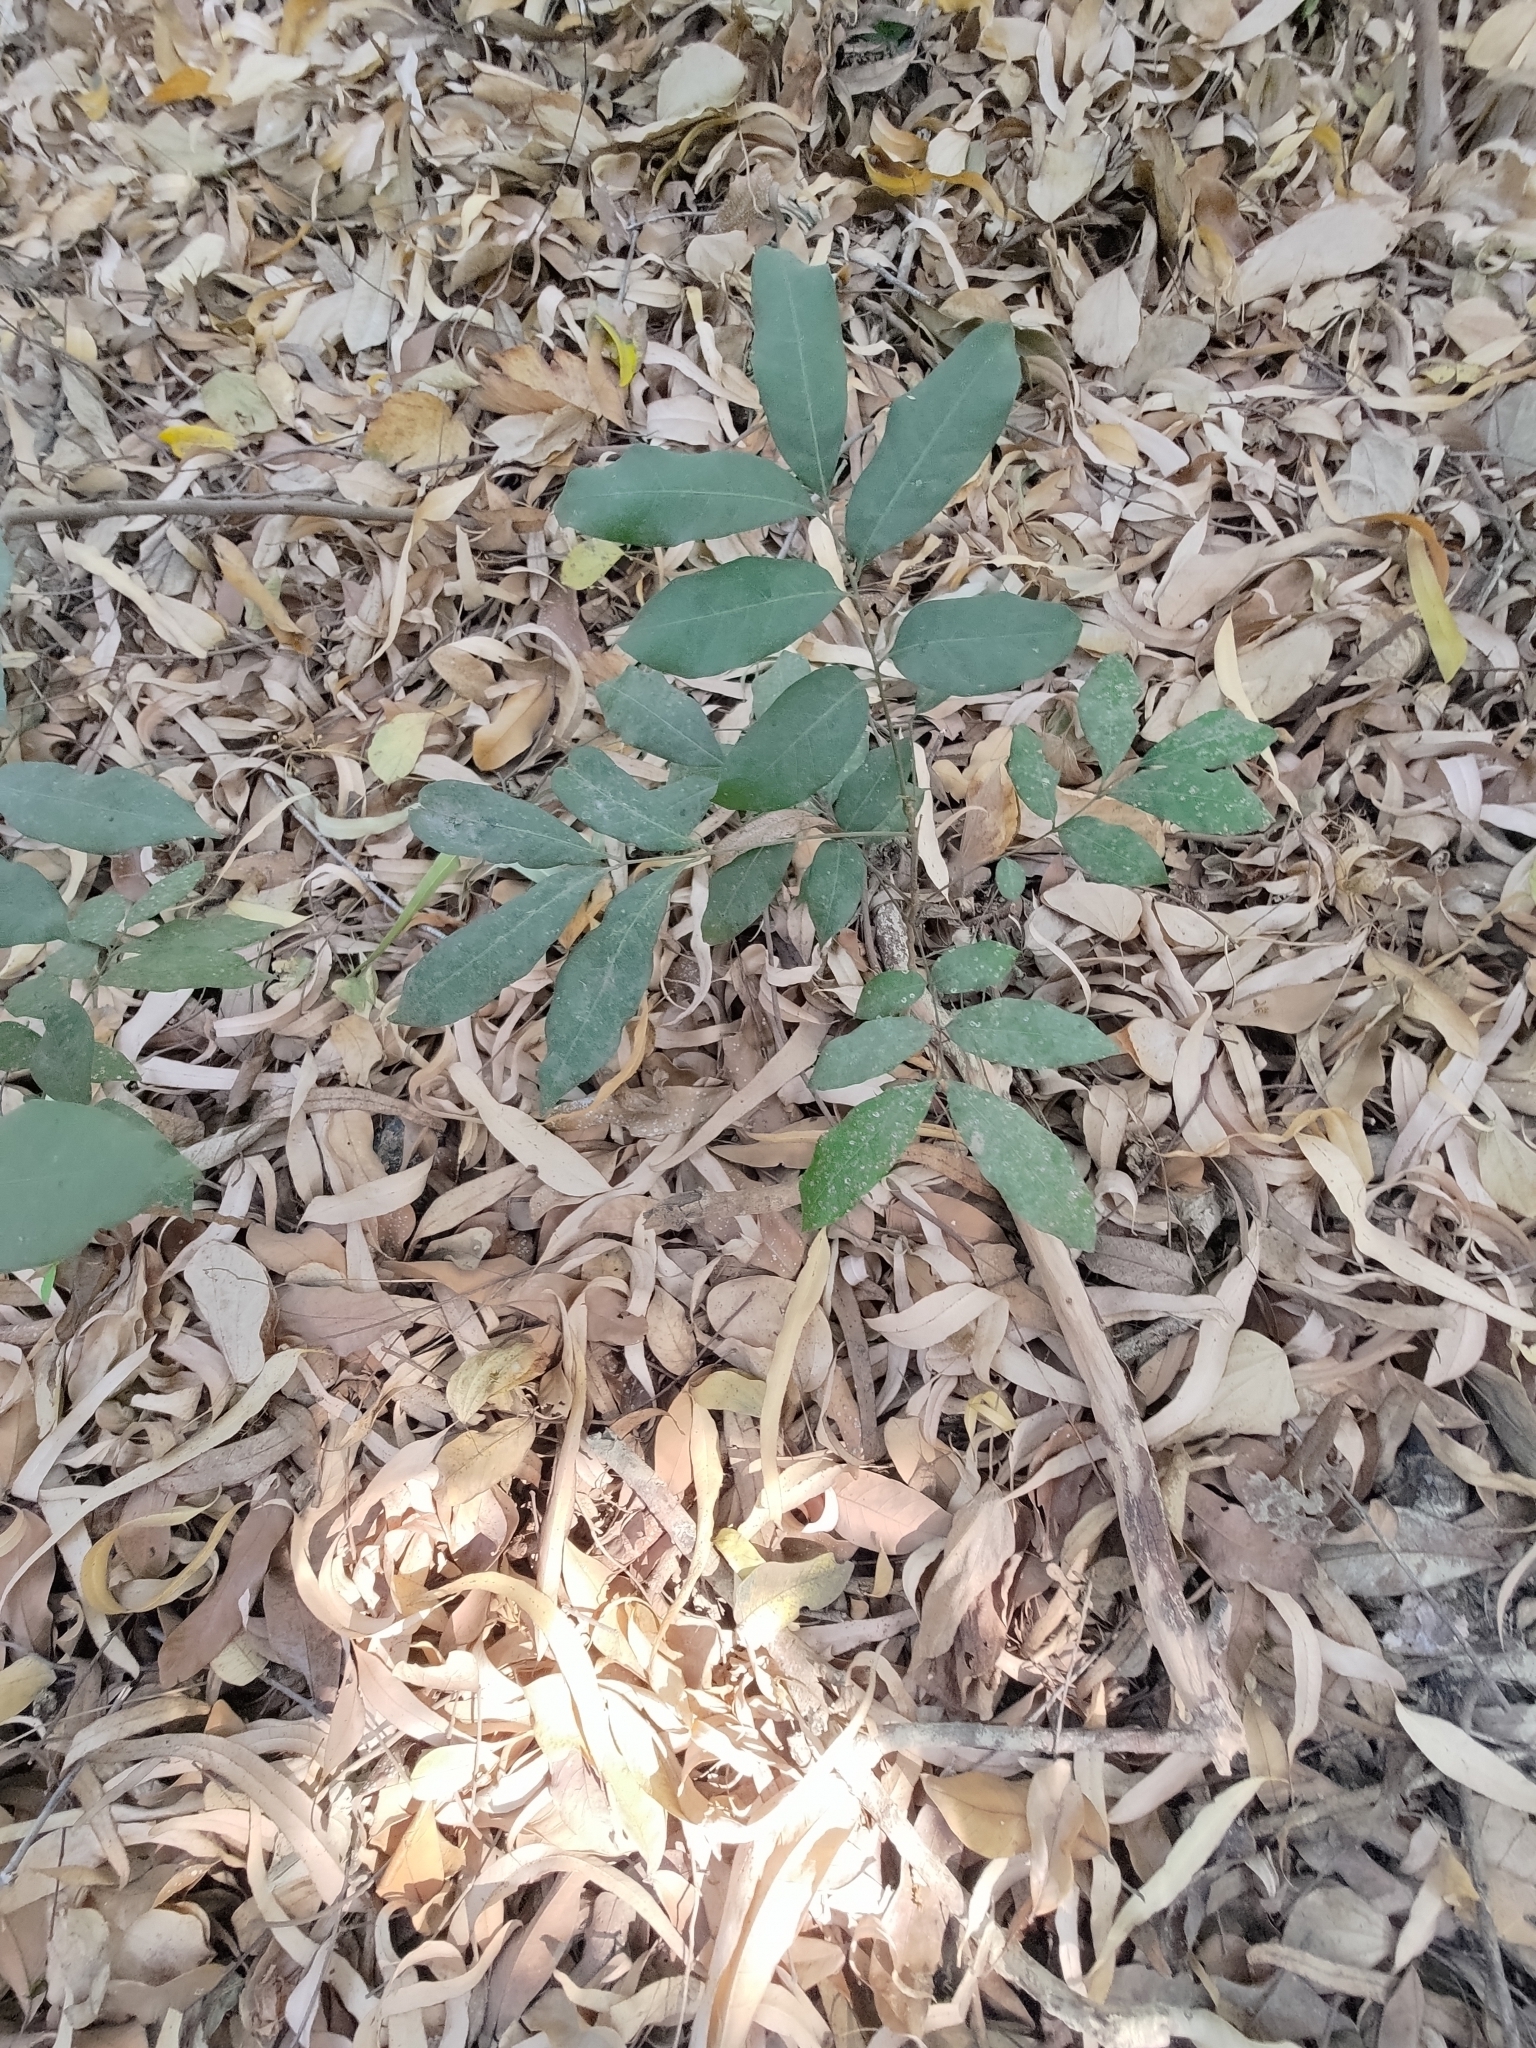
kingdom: Plantae
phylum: Tracheophyta
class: Magnoliopsida
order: Sapindales
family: Sapindaceae
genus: Dimocarpus
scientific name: Dimocarpus longan
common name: Longan
